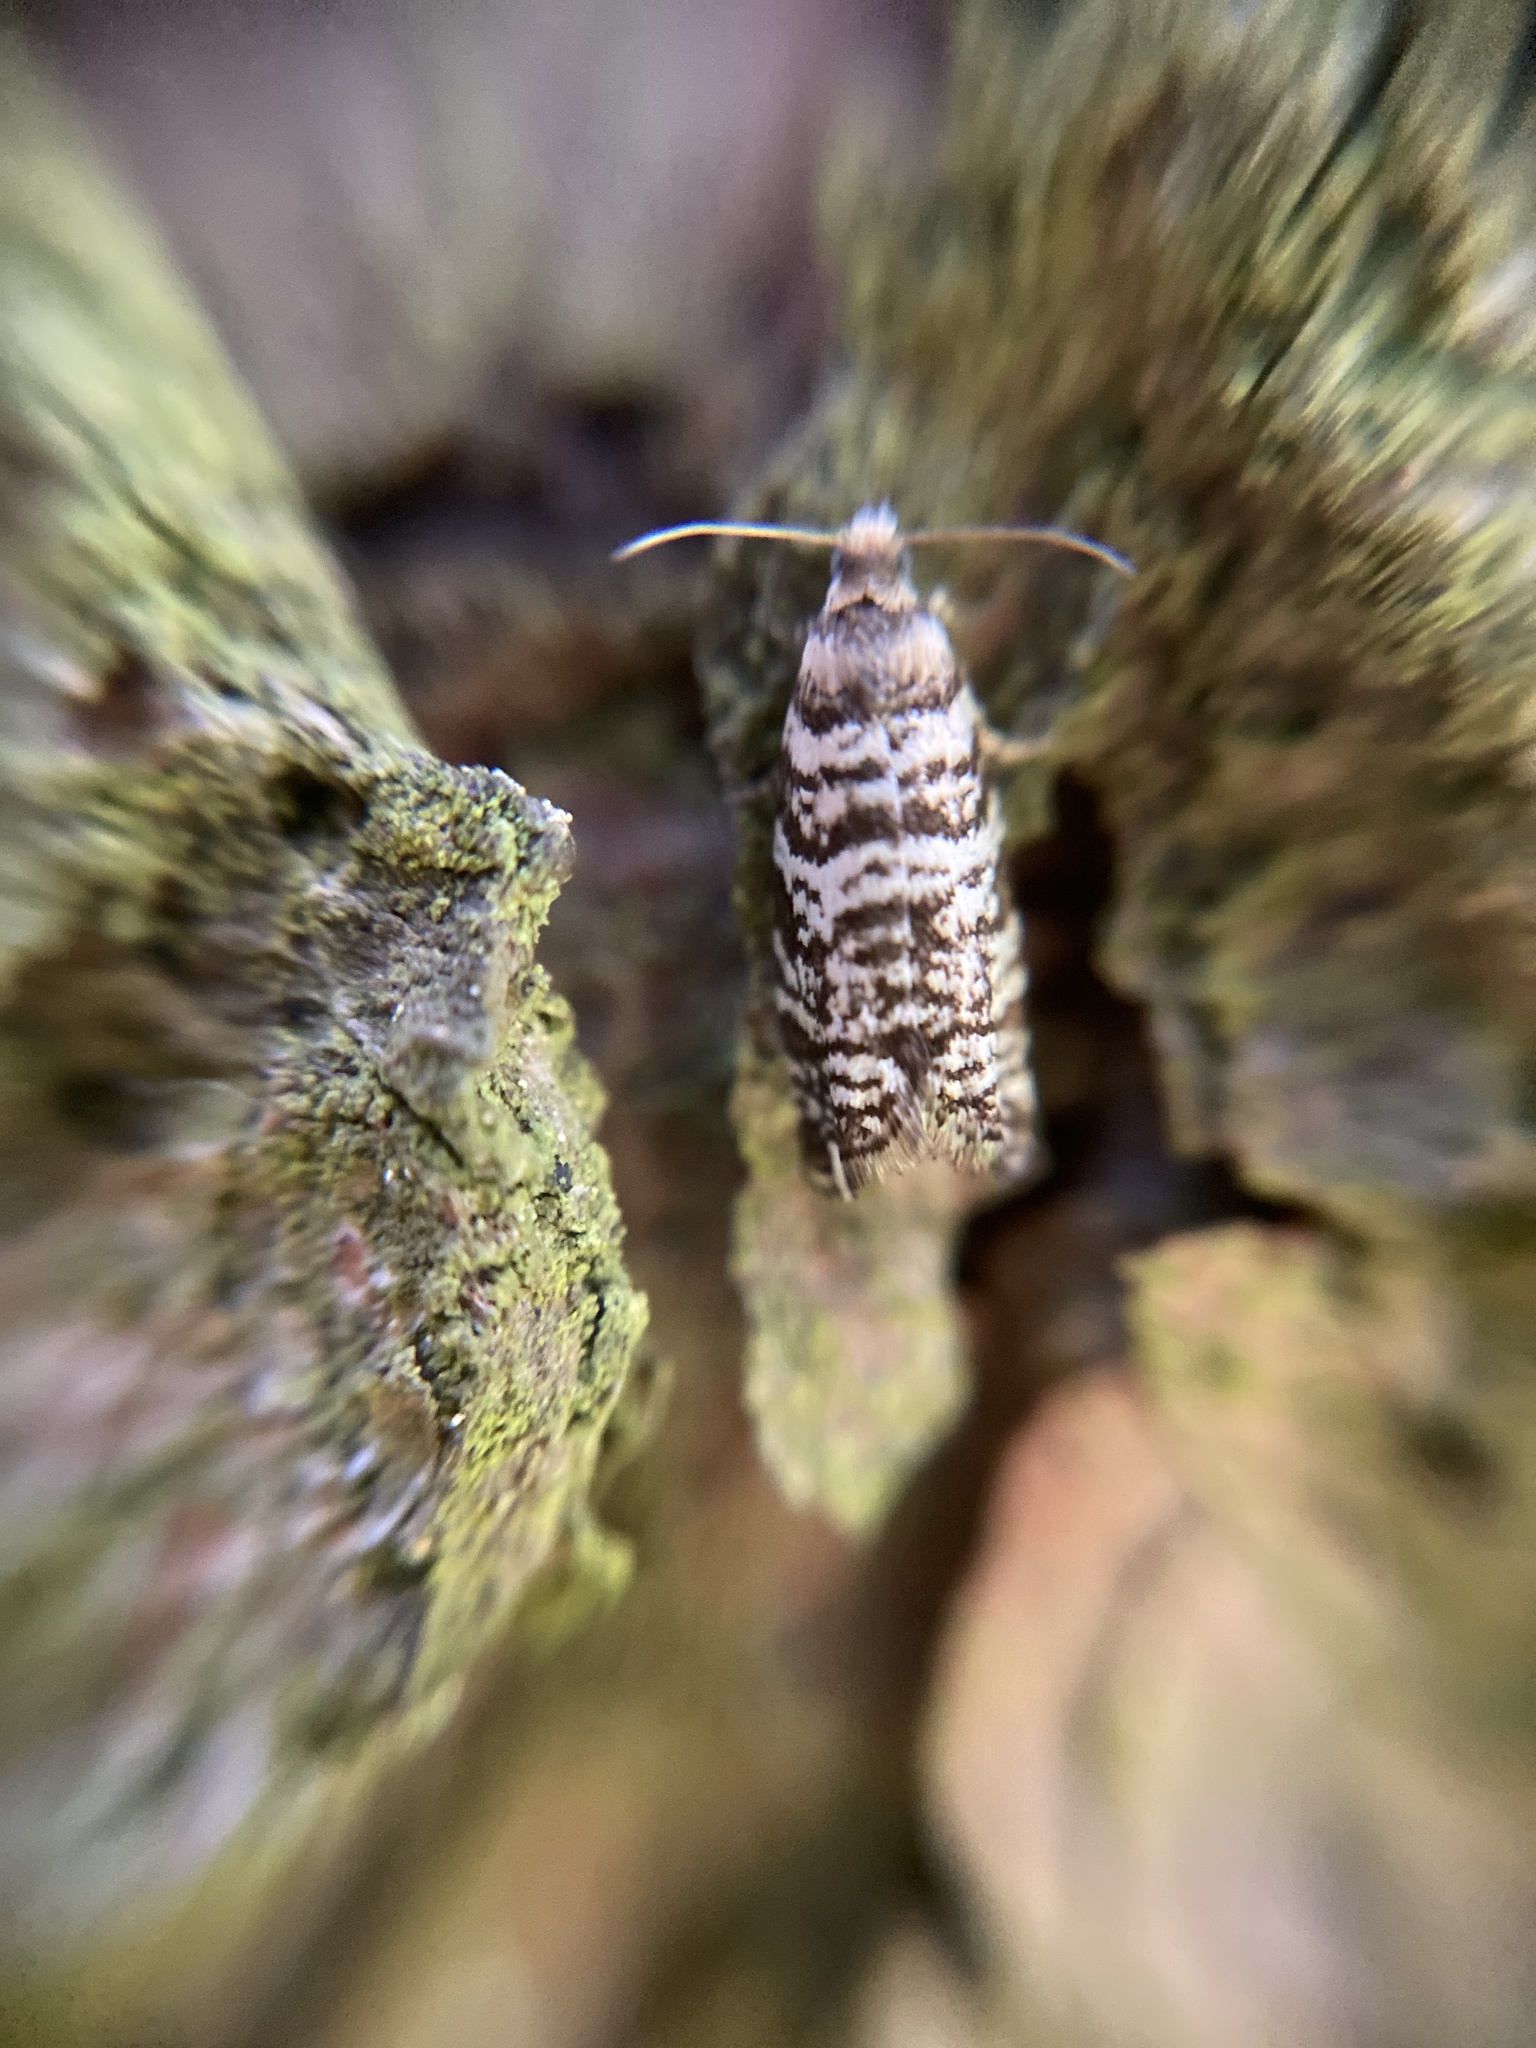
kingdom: Animalia
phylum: Arthropoda
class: Insecta
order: Lepidoptera
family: Tortricidae
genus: Epinotia
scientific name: Epinotia tedella
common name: Common spruce bell
